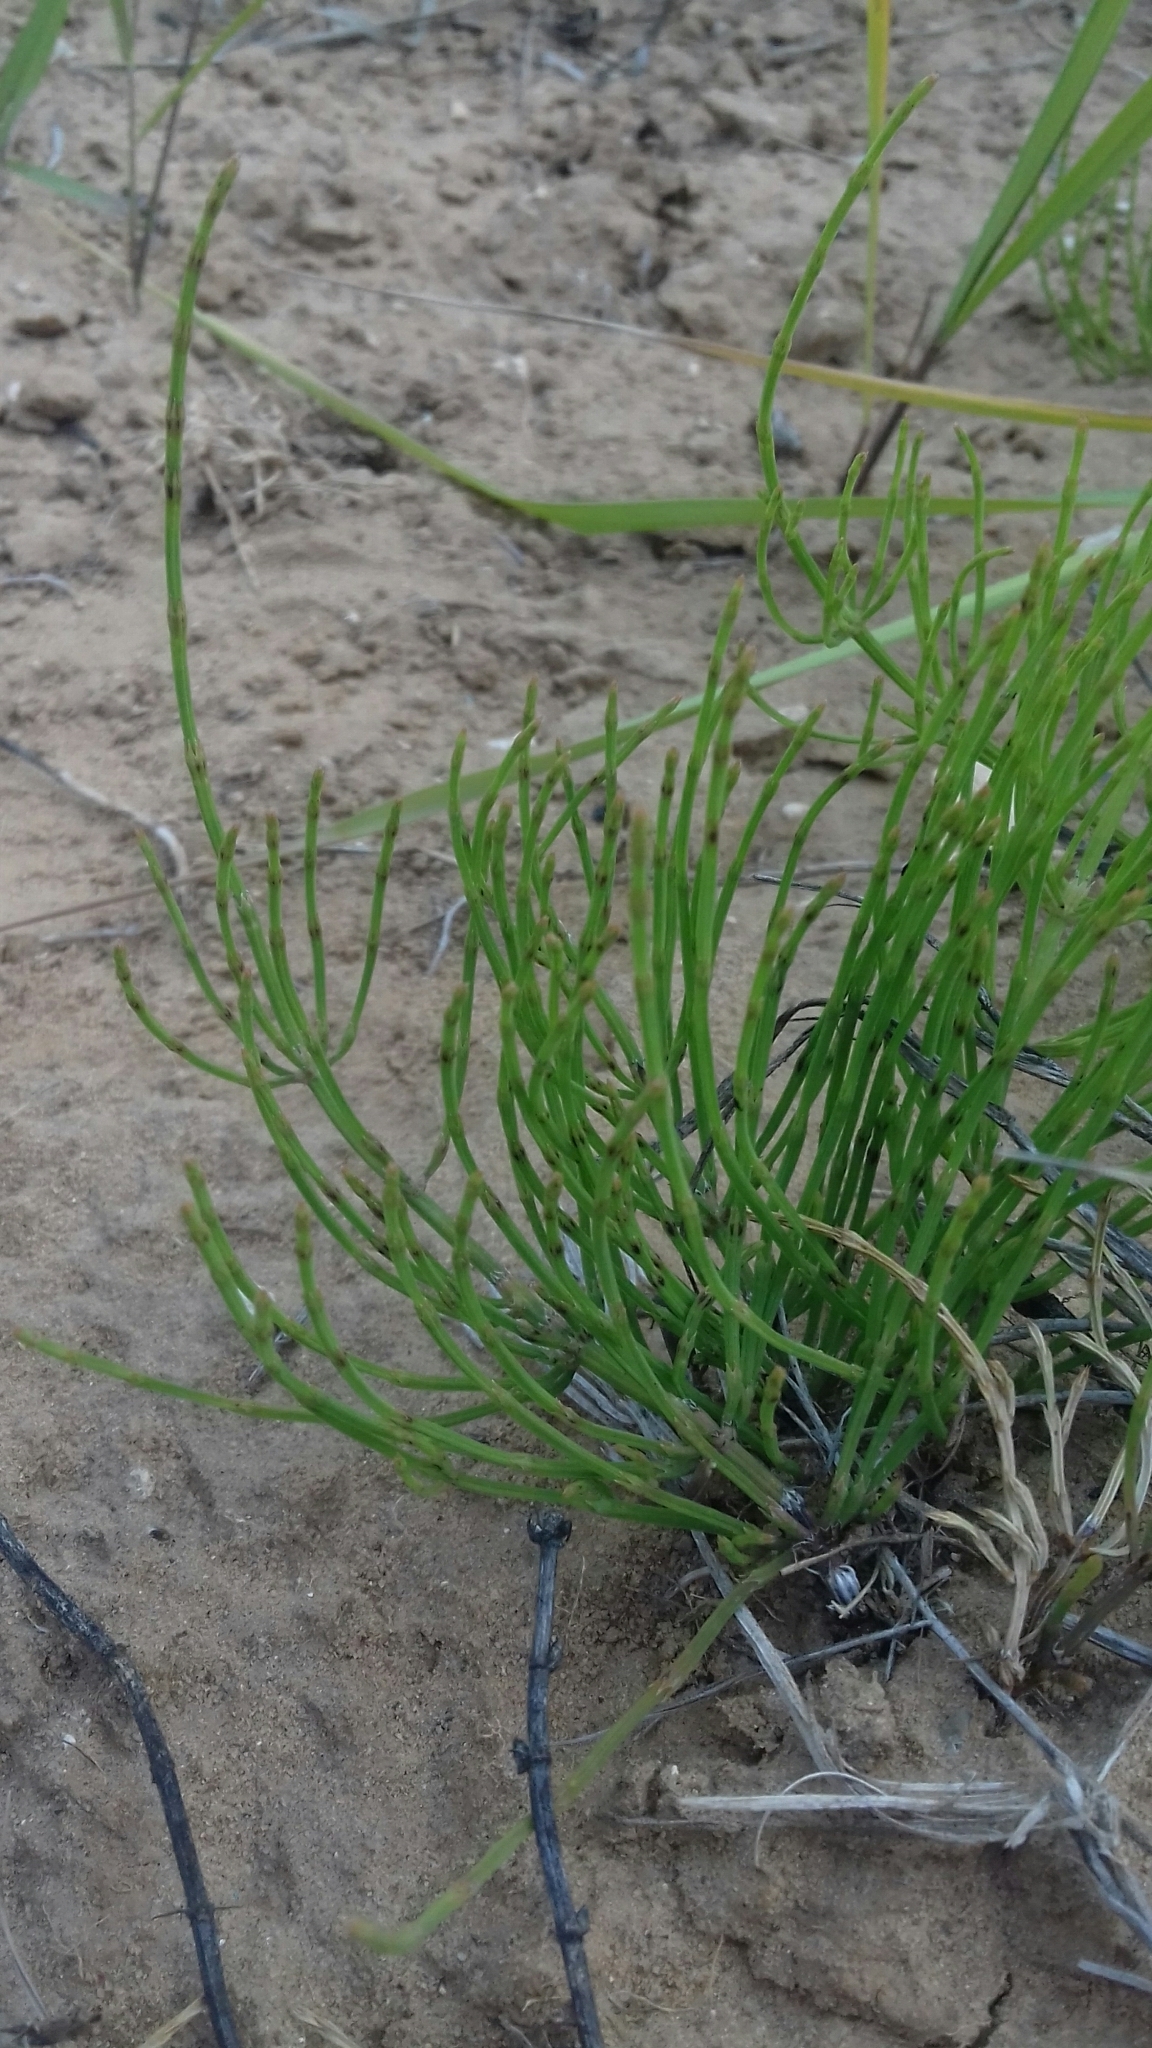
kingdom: Plantae
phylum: Tracheophyta
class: Polypodiopsida
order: Equisetales
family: Equisetaceae
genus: Equisetum
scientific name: Equisetum arvense
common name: Field horsetail
